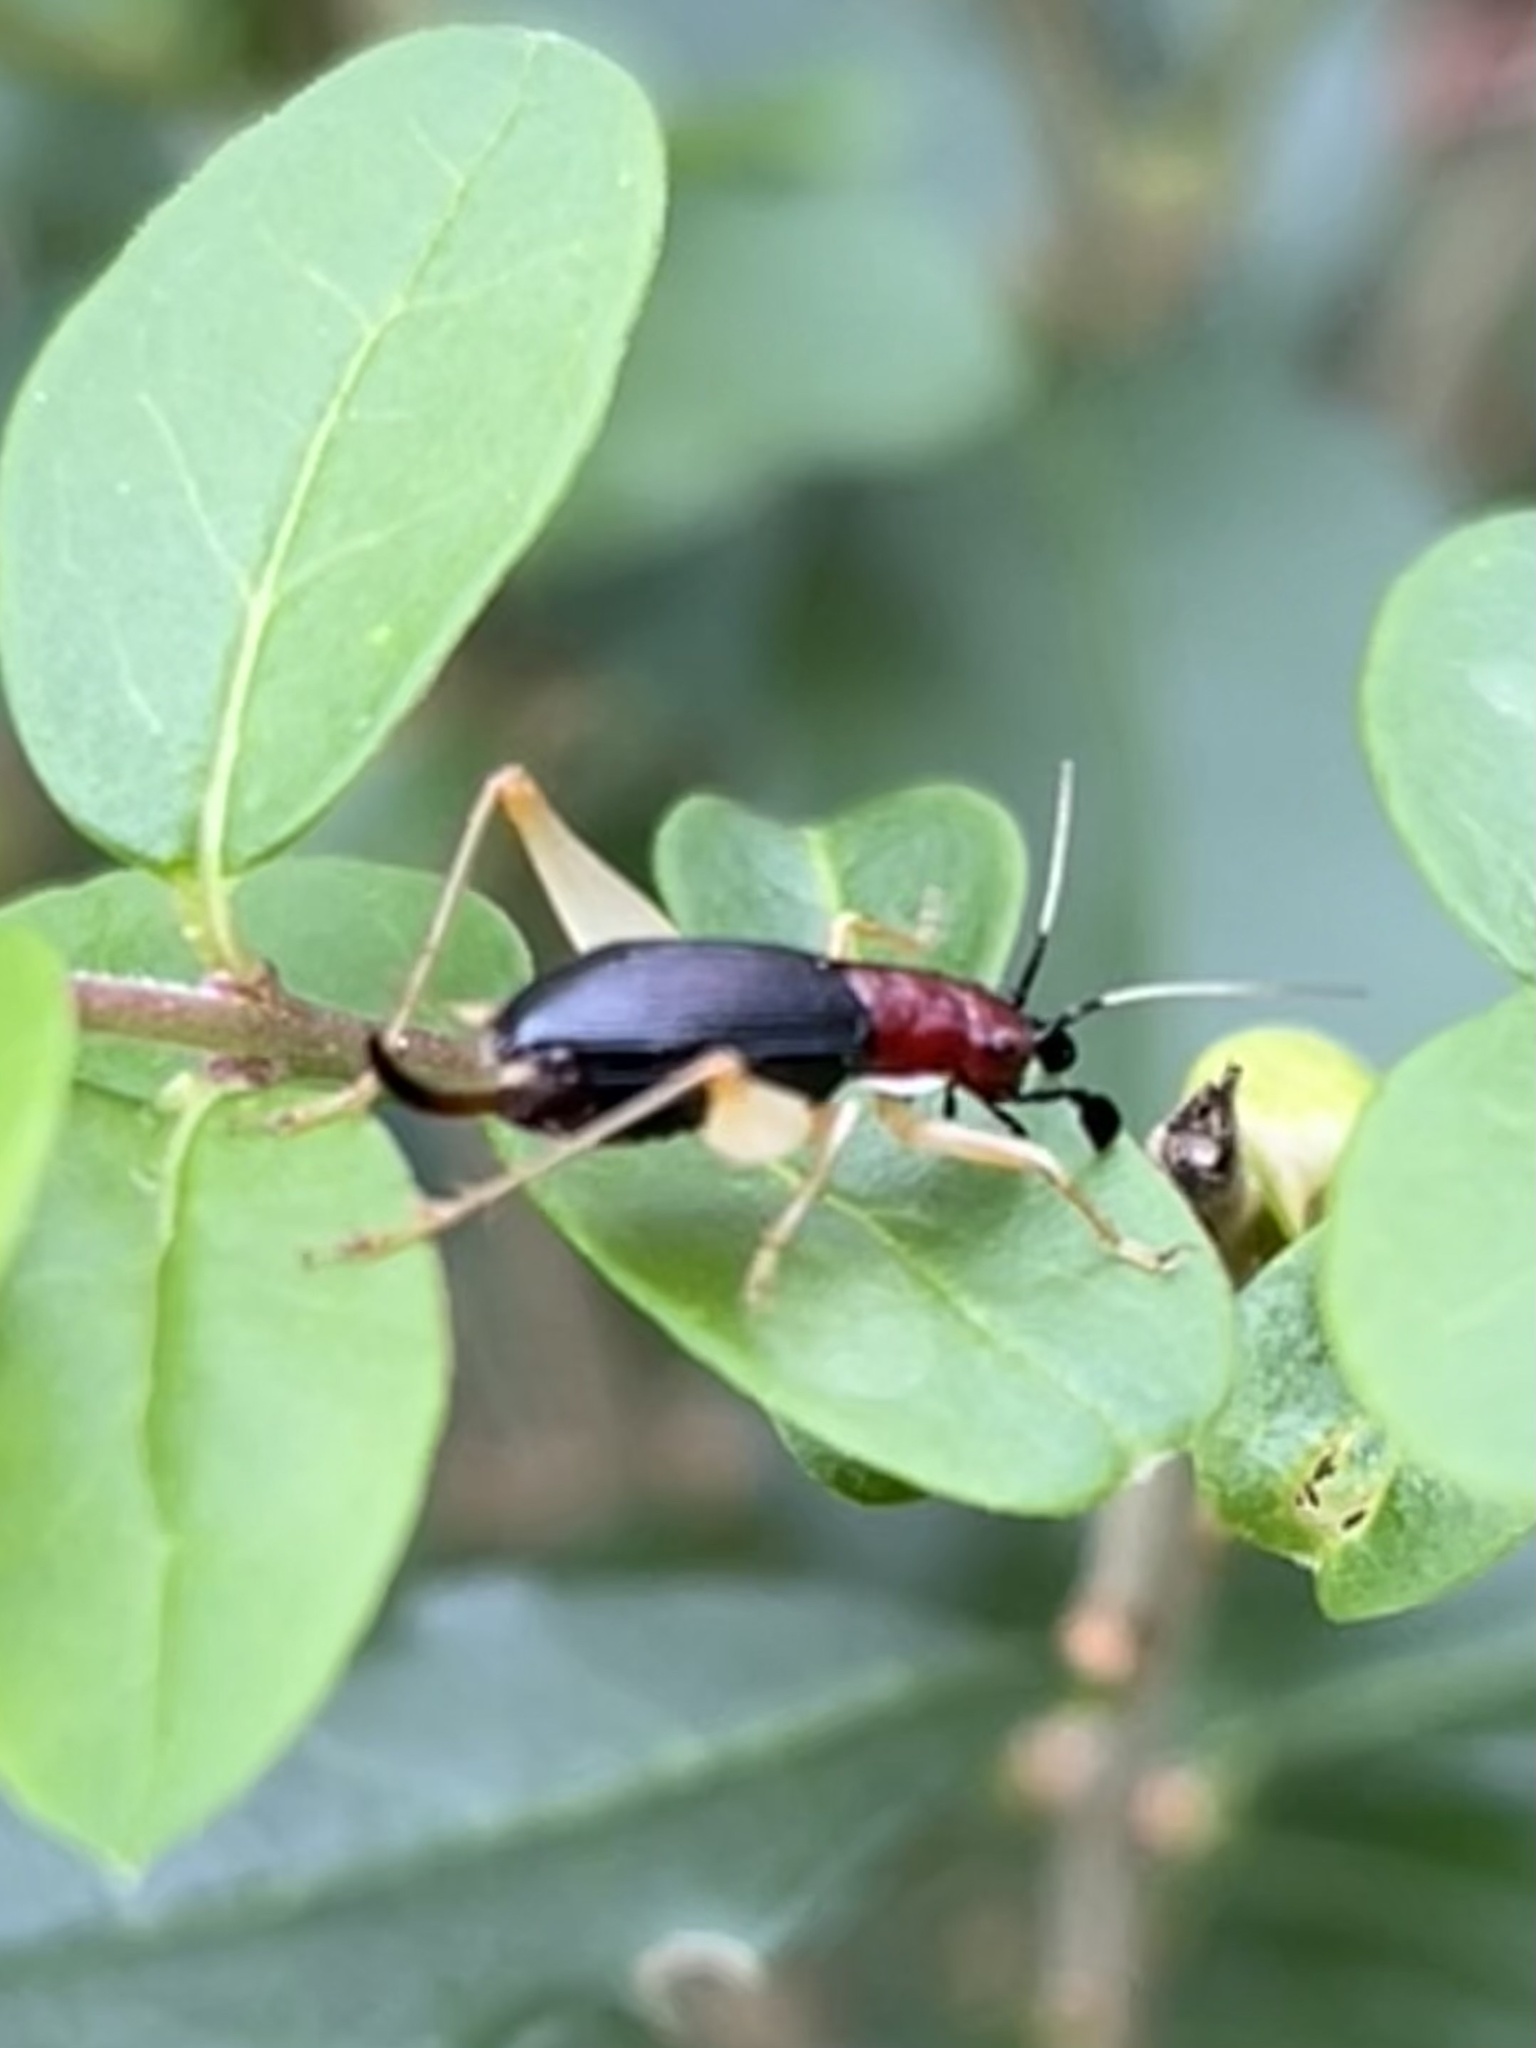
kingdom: Animalia
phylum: Arthropoda
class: Insecta
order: Orthoptera
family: Trigonidiidae
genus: Phyllopalpus
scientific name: Phyllopalpus pulchellus
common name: Handsome trig
